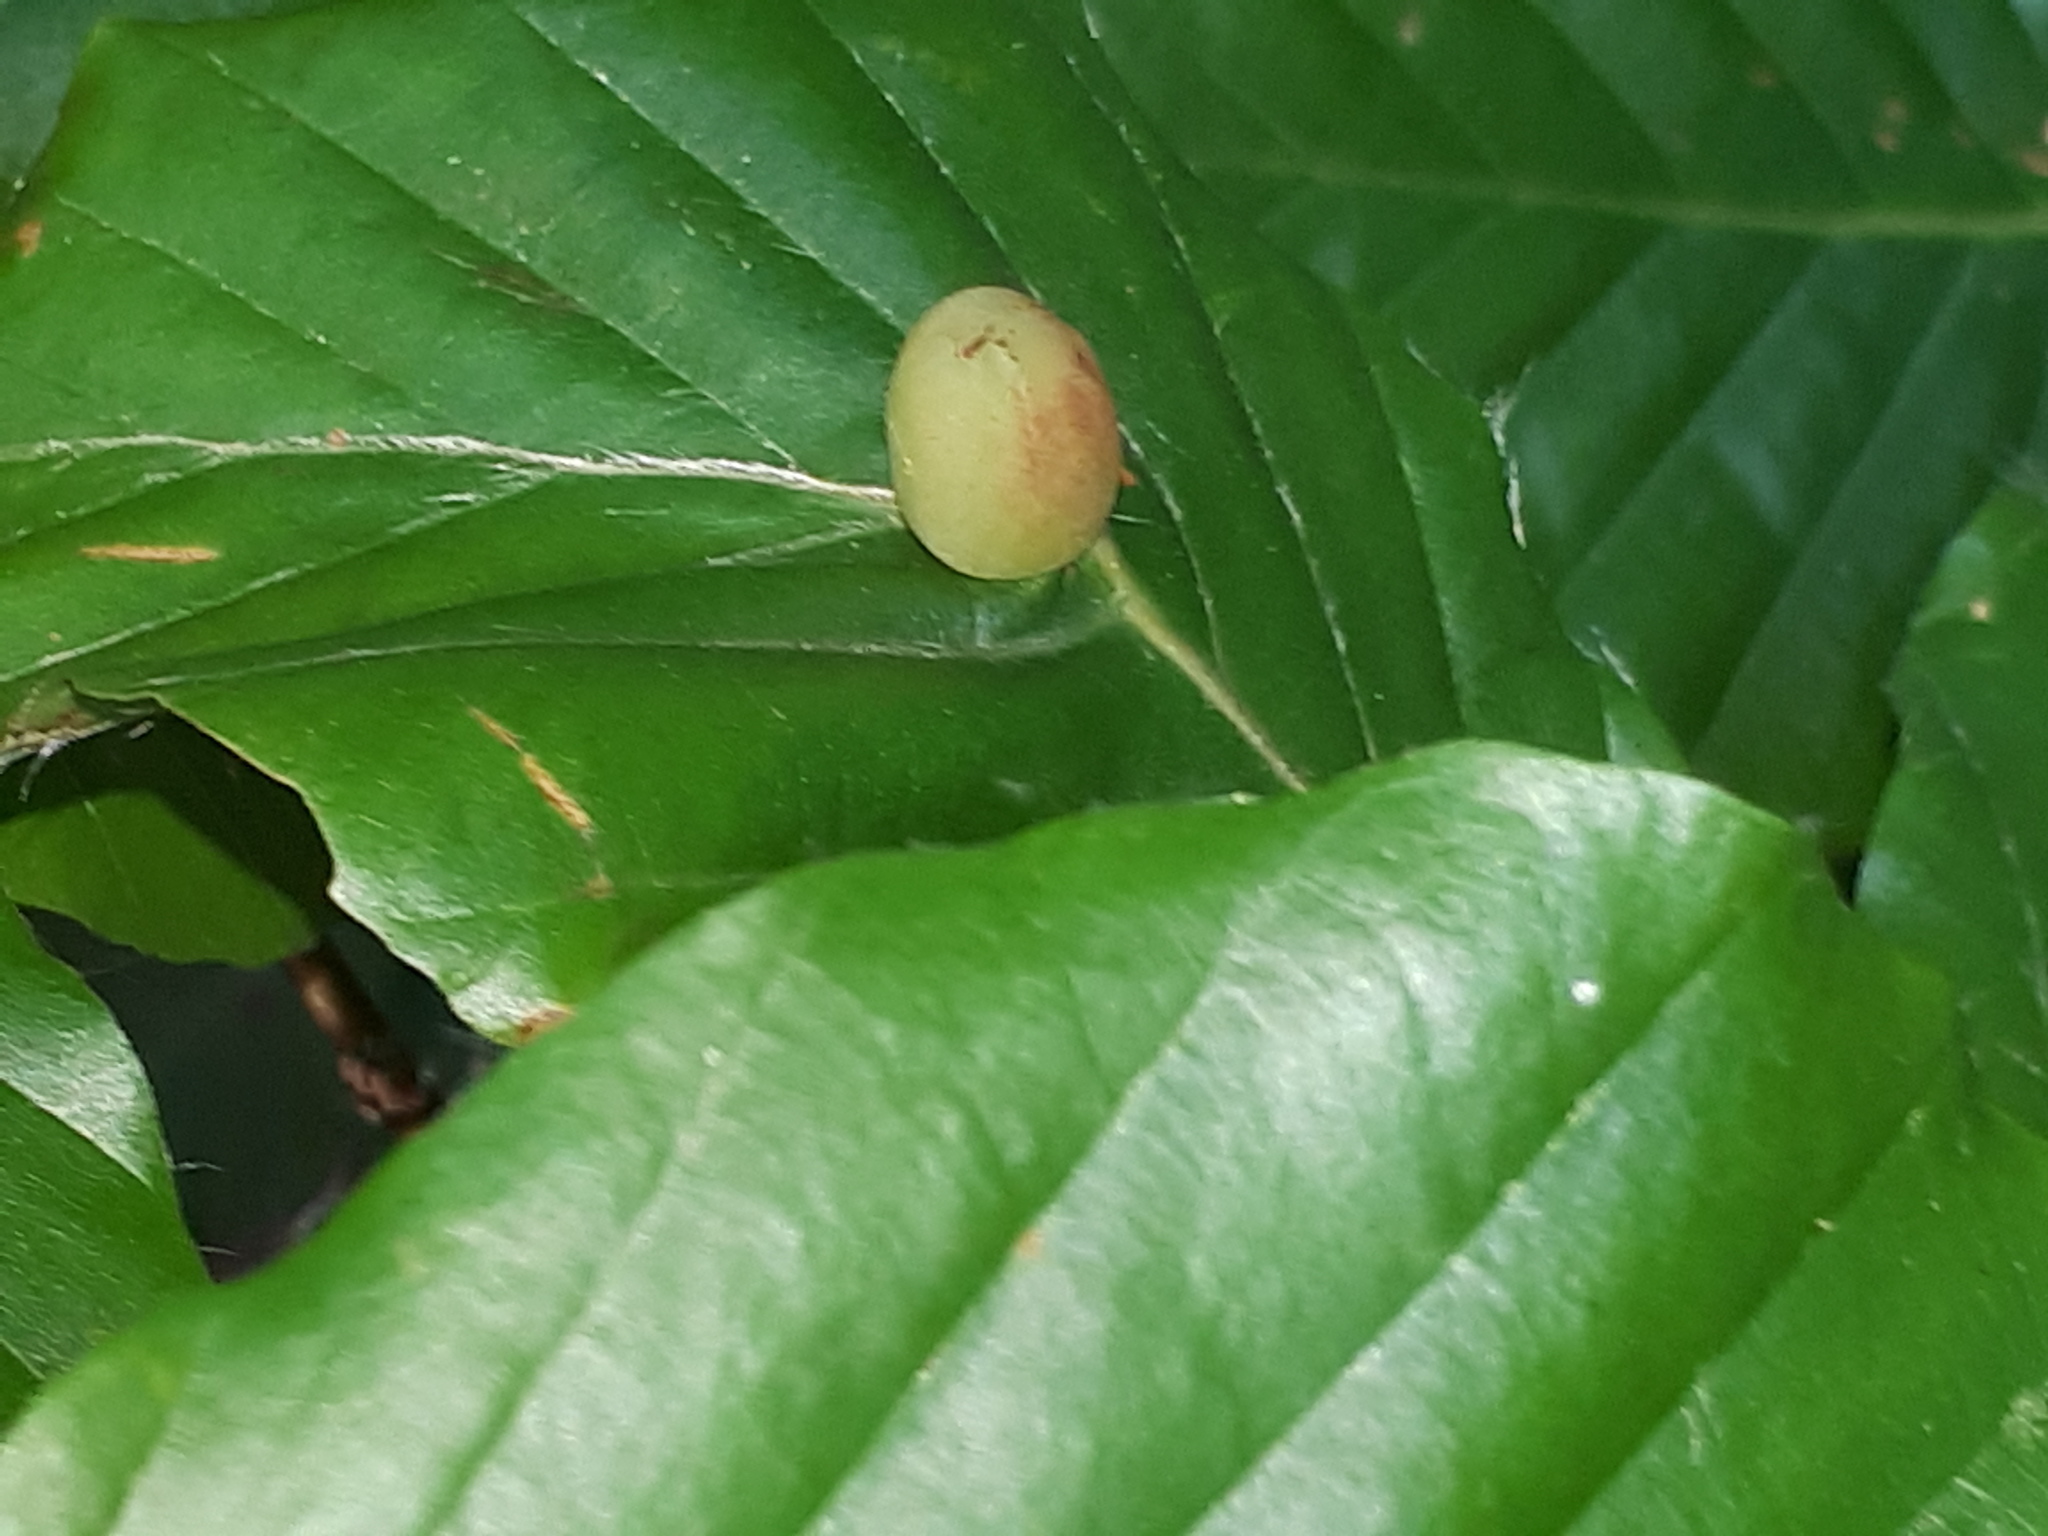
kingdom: Animalia
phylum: Arthropoda
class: Insecta
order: Diptera
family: Cecidomyiidae
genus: Mikiola
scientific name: Mikiola fagi
